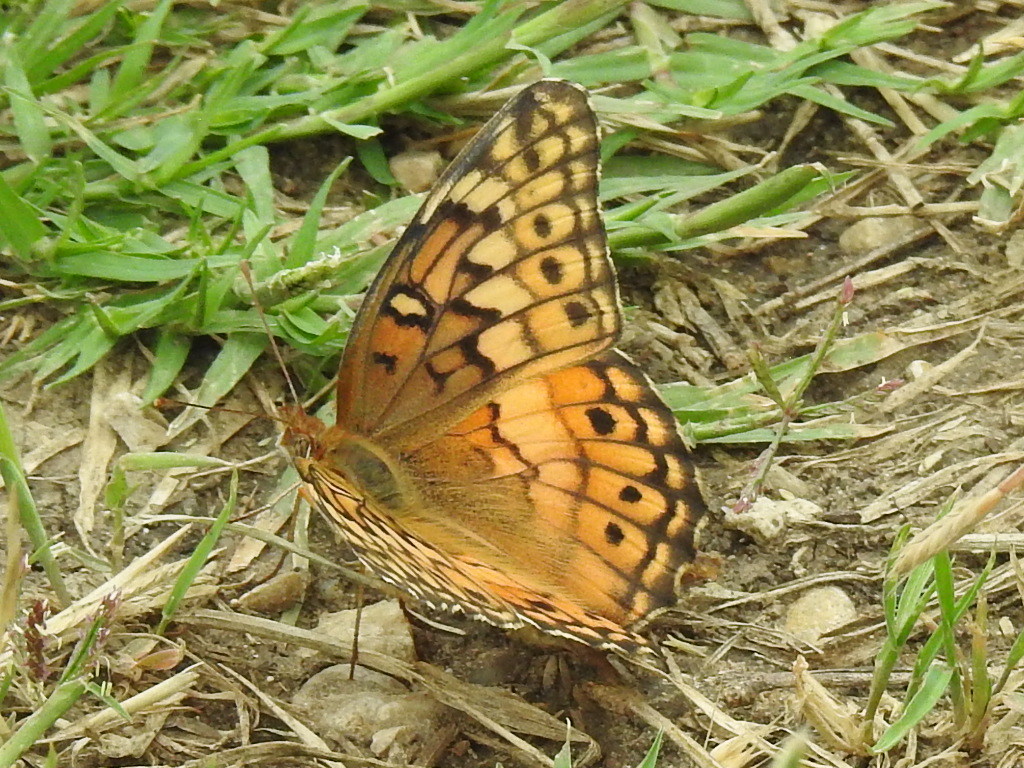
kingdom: Animalia
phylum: Arthropoda
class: Insecta
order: Lepidoptera
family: Nymphalidae
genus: Euptoieta
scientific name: Euptoieta claudia
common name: Variegated fritillary
